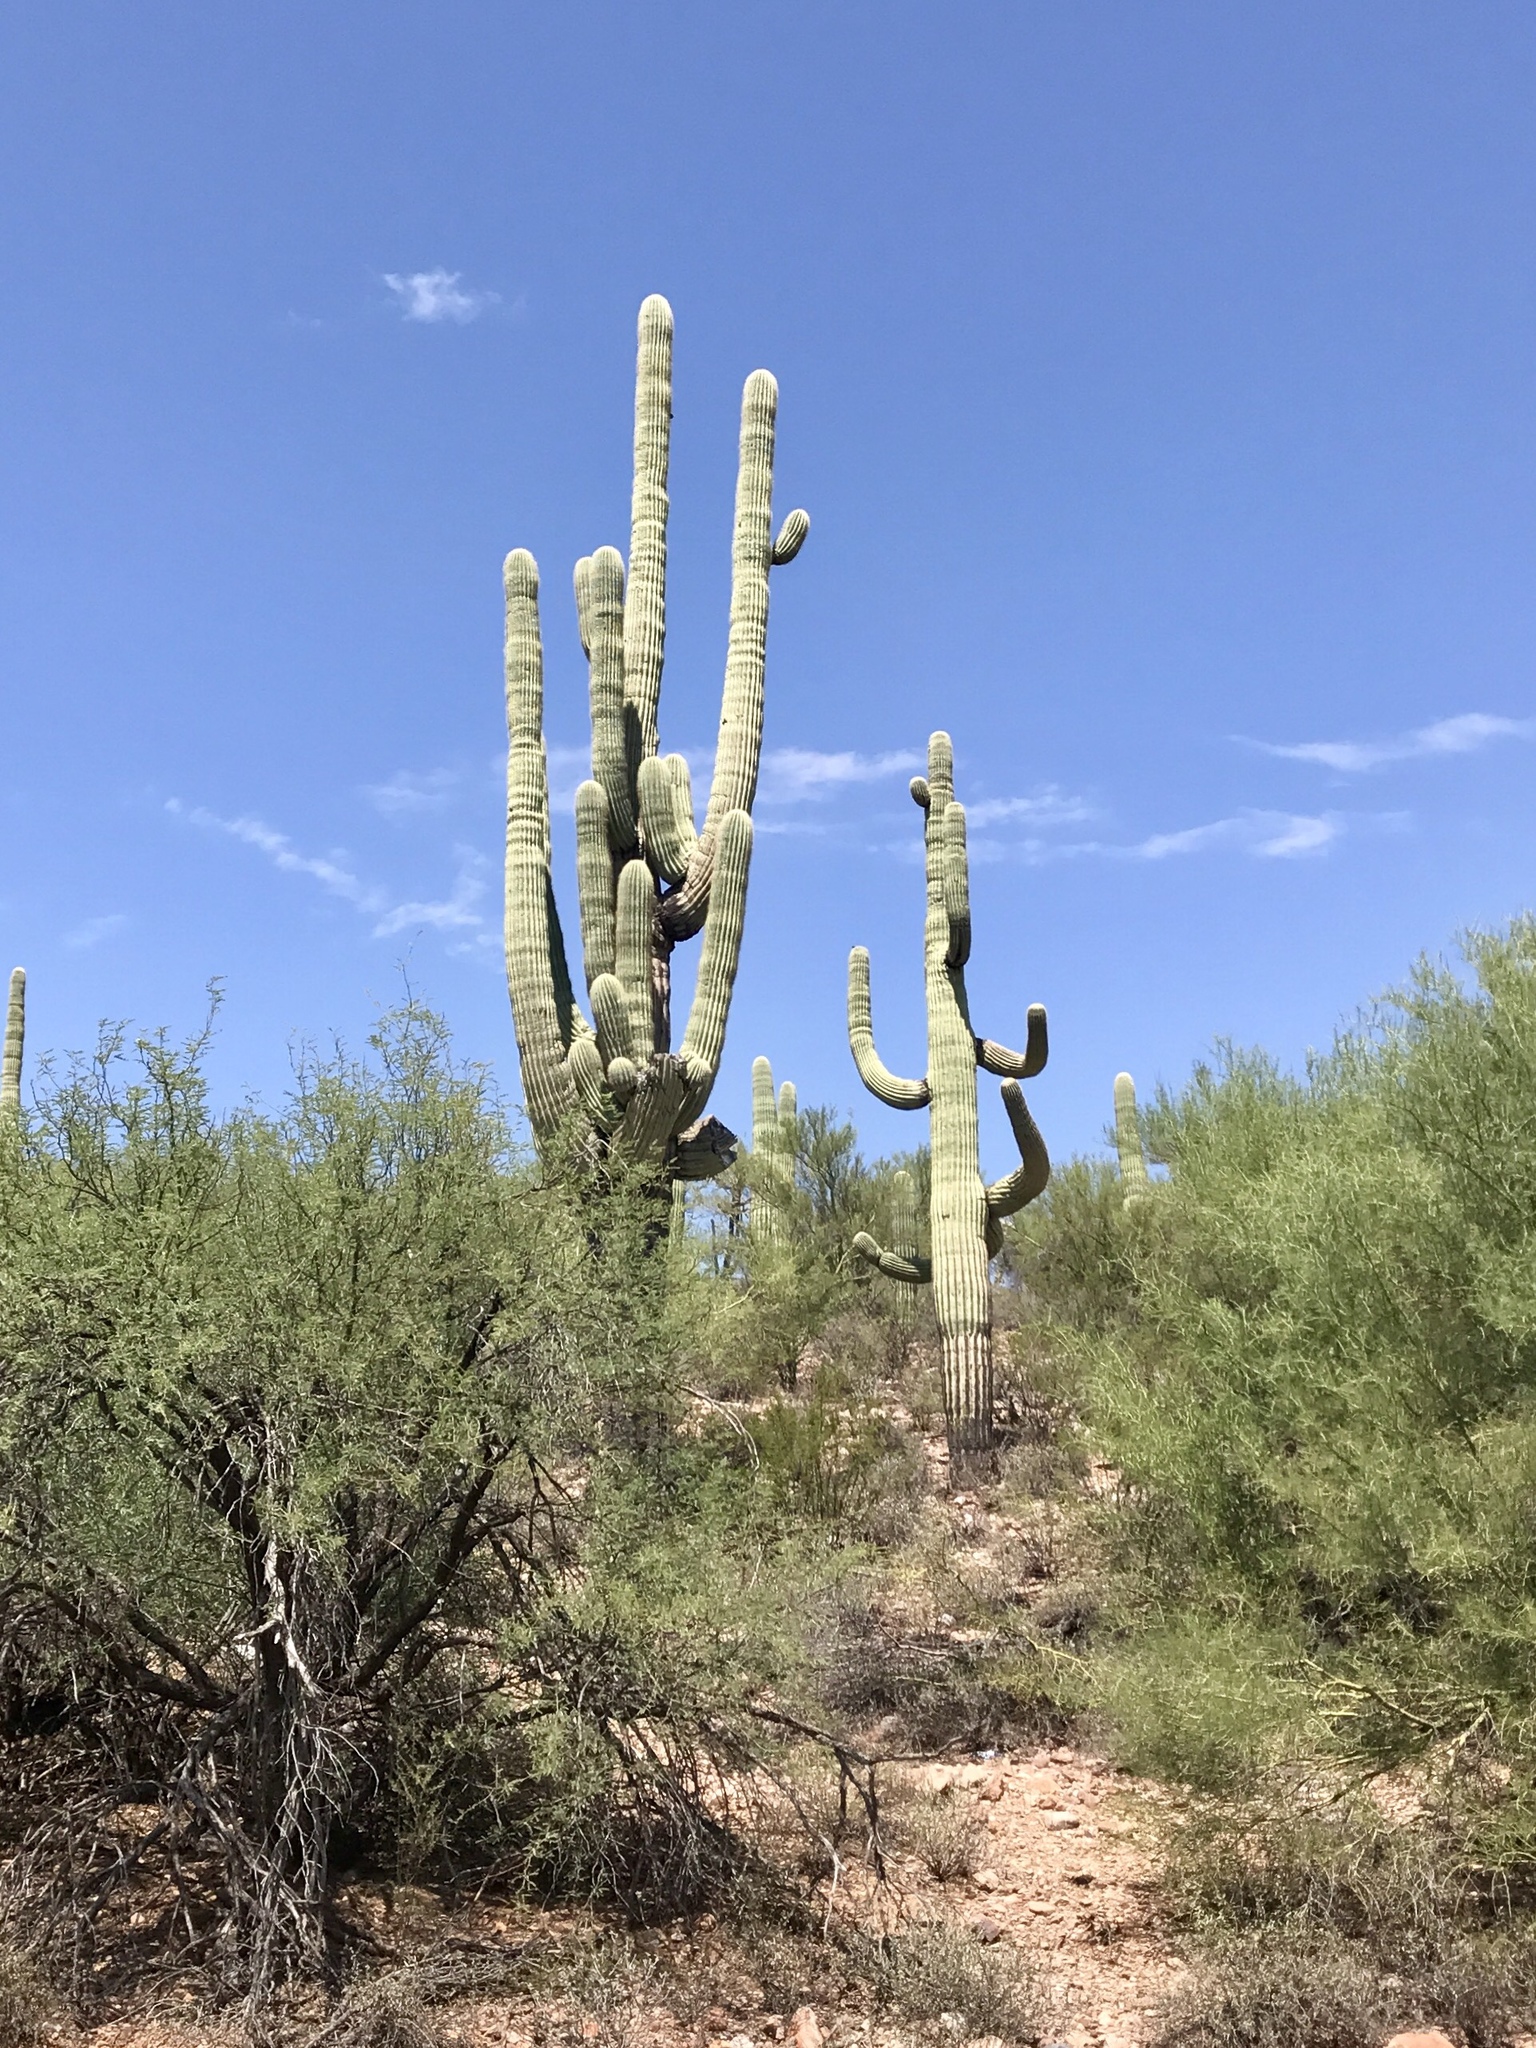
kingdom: Plantae
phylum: Tracheophyta
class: Magnoliopsida
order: Caryophyllales
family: Cactaceae
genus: Carnegiea
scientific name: Carnegiea gigantea
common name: Saguaro
